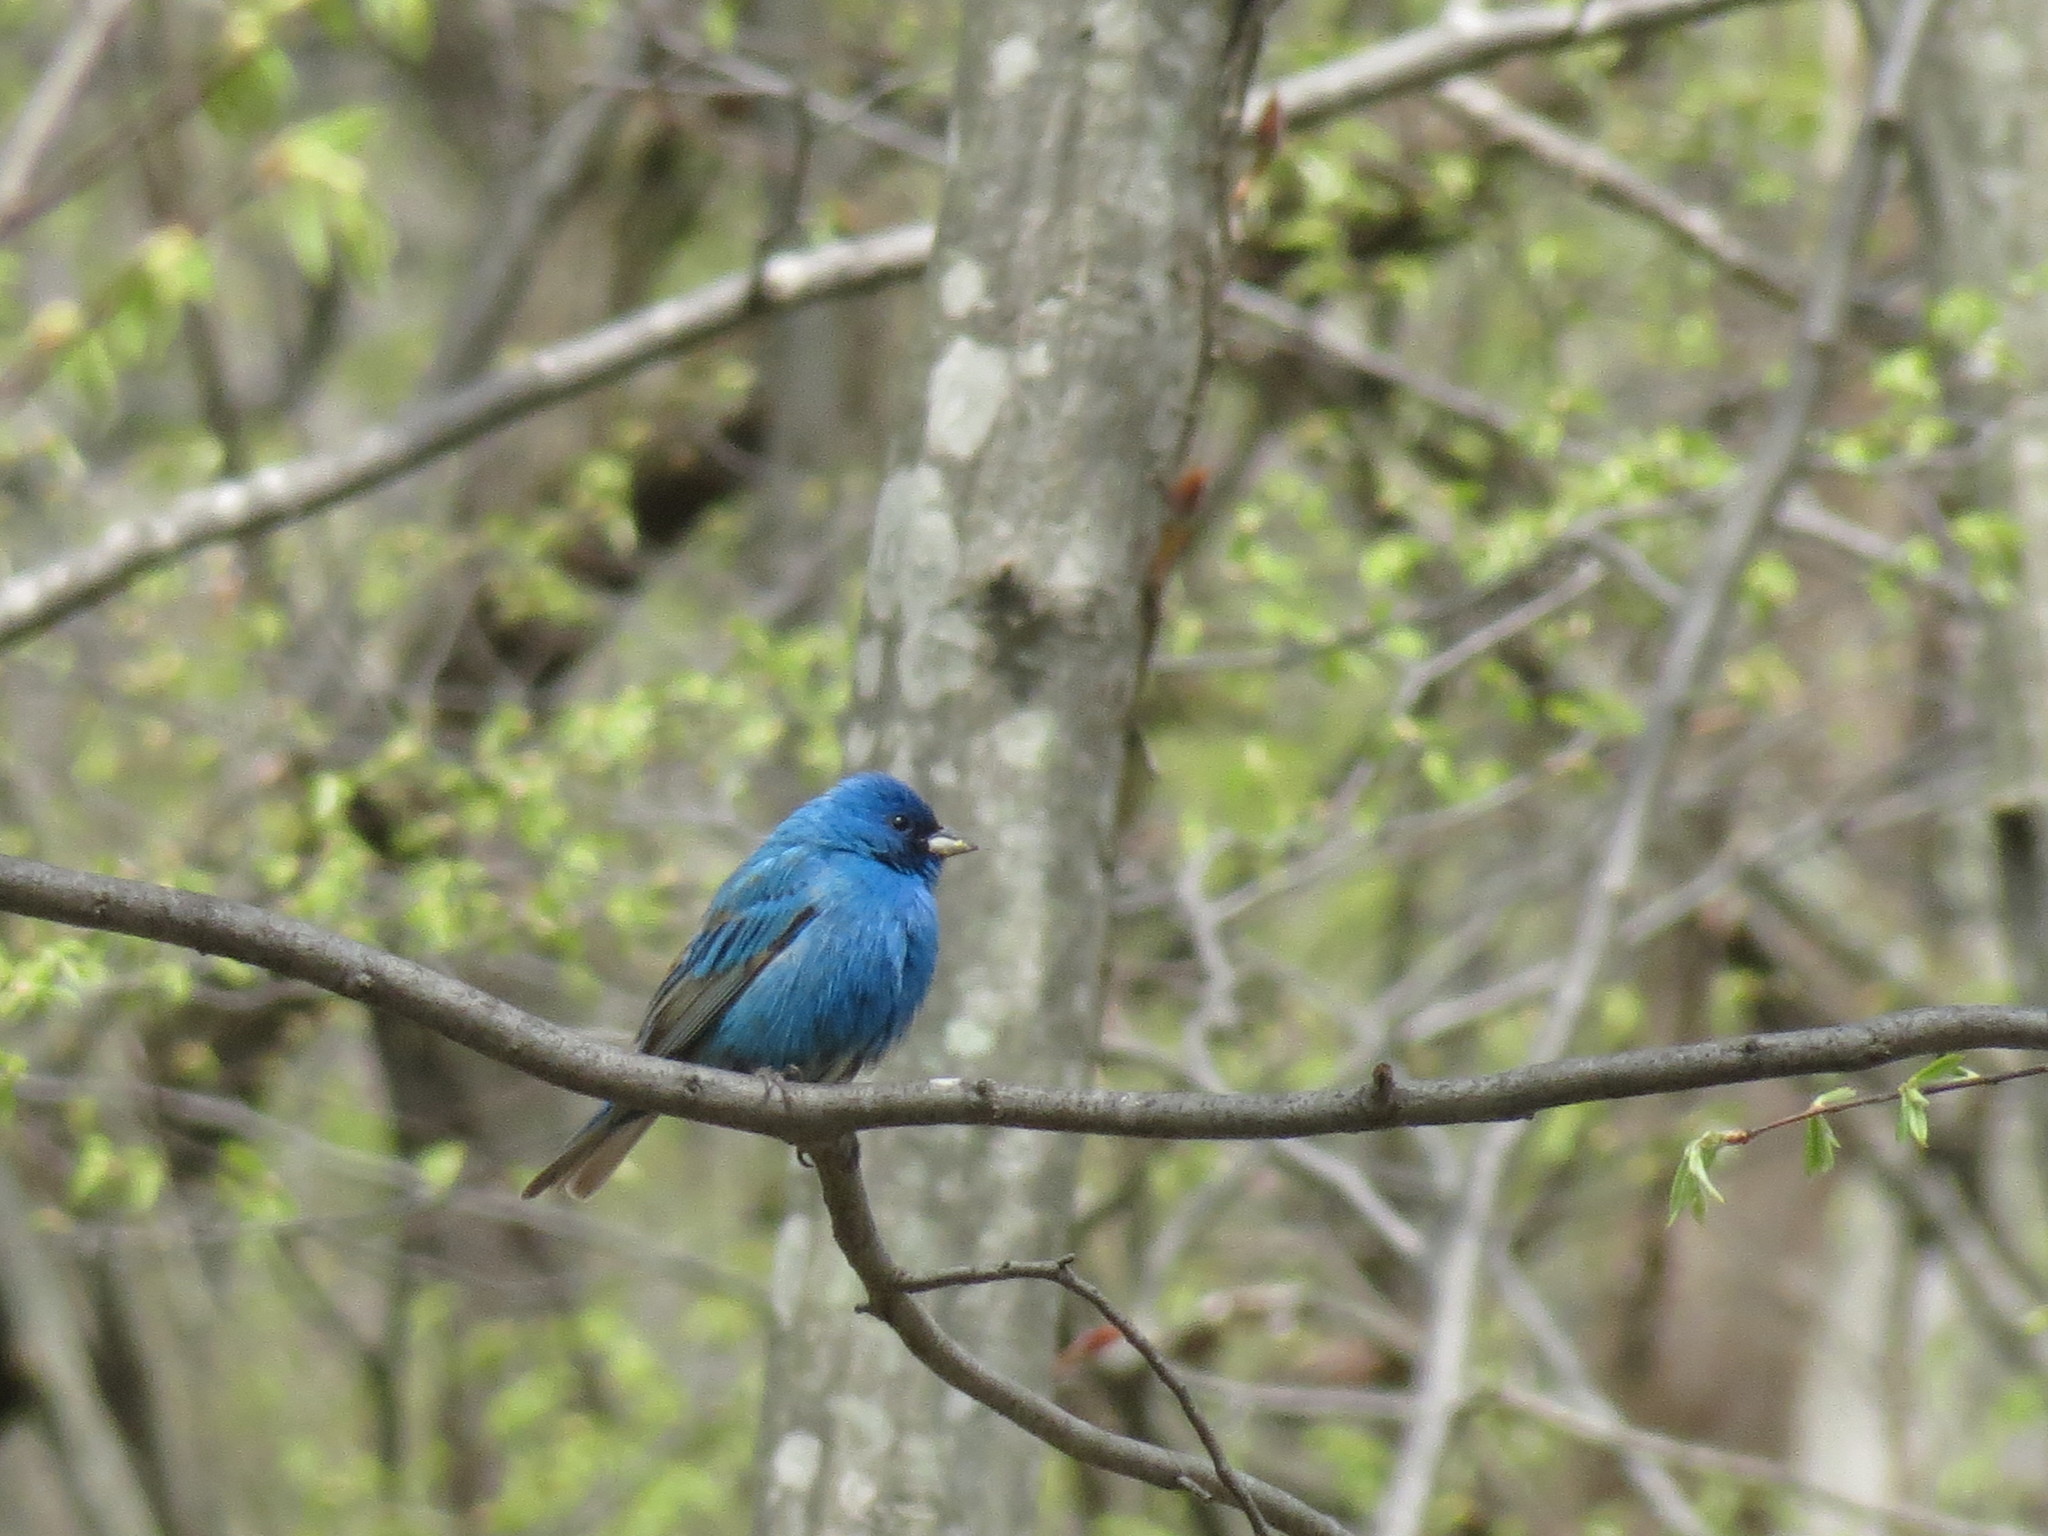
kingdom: Animalia
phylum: Chordata
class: Aves
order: Passeriformes
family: Cardinalidae
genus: Passerina
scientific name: Passerina cyanea
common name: Indigo bunting
